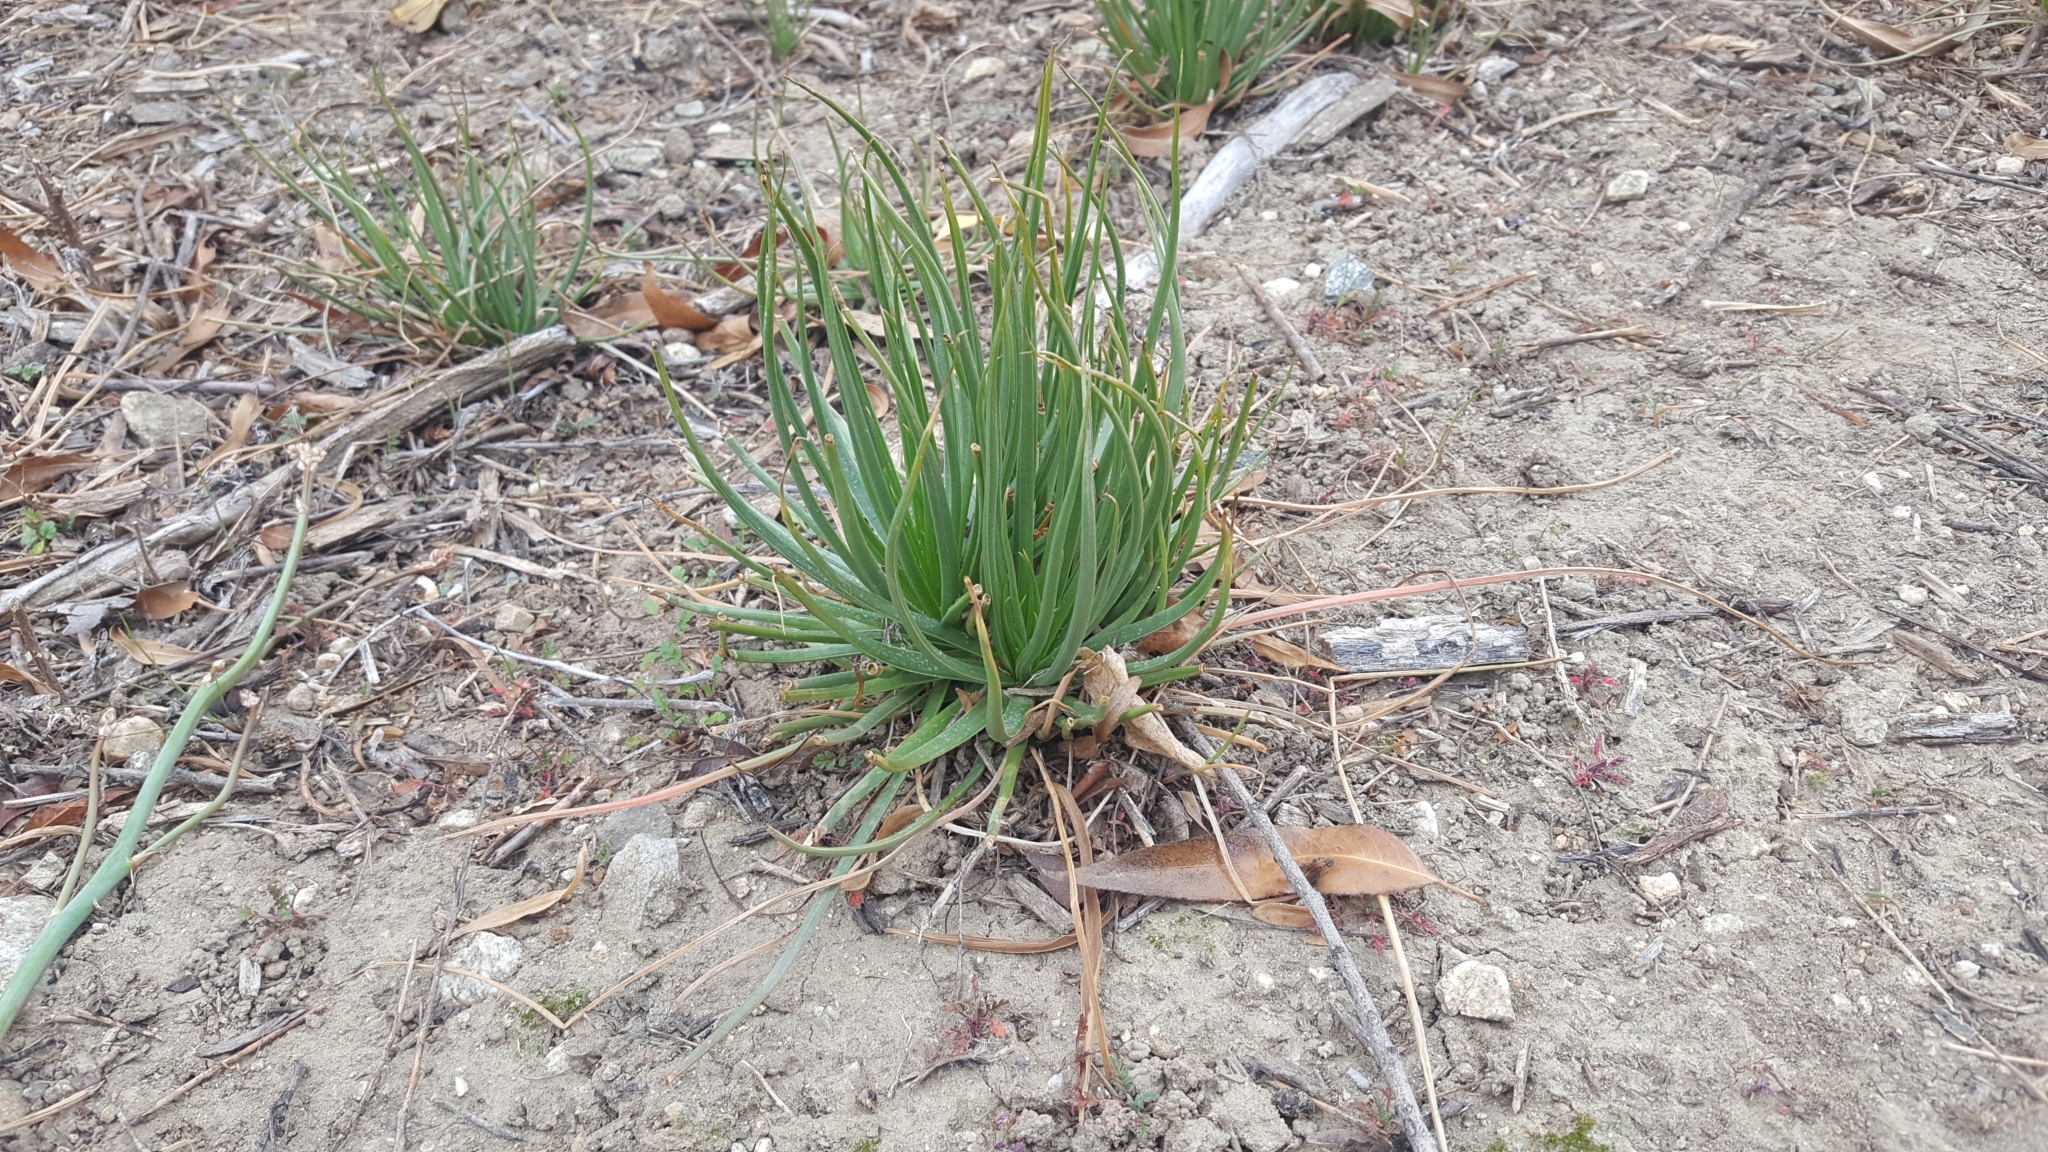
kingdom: Plantae
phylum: Tracheophyta
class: Liliopsida
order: Asparagales
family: Asphodelaceae
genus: Asphodelus
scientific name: Asphodelus fistulosus
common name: Onionweed
